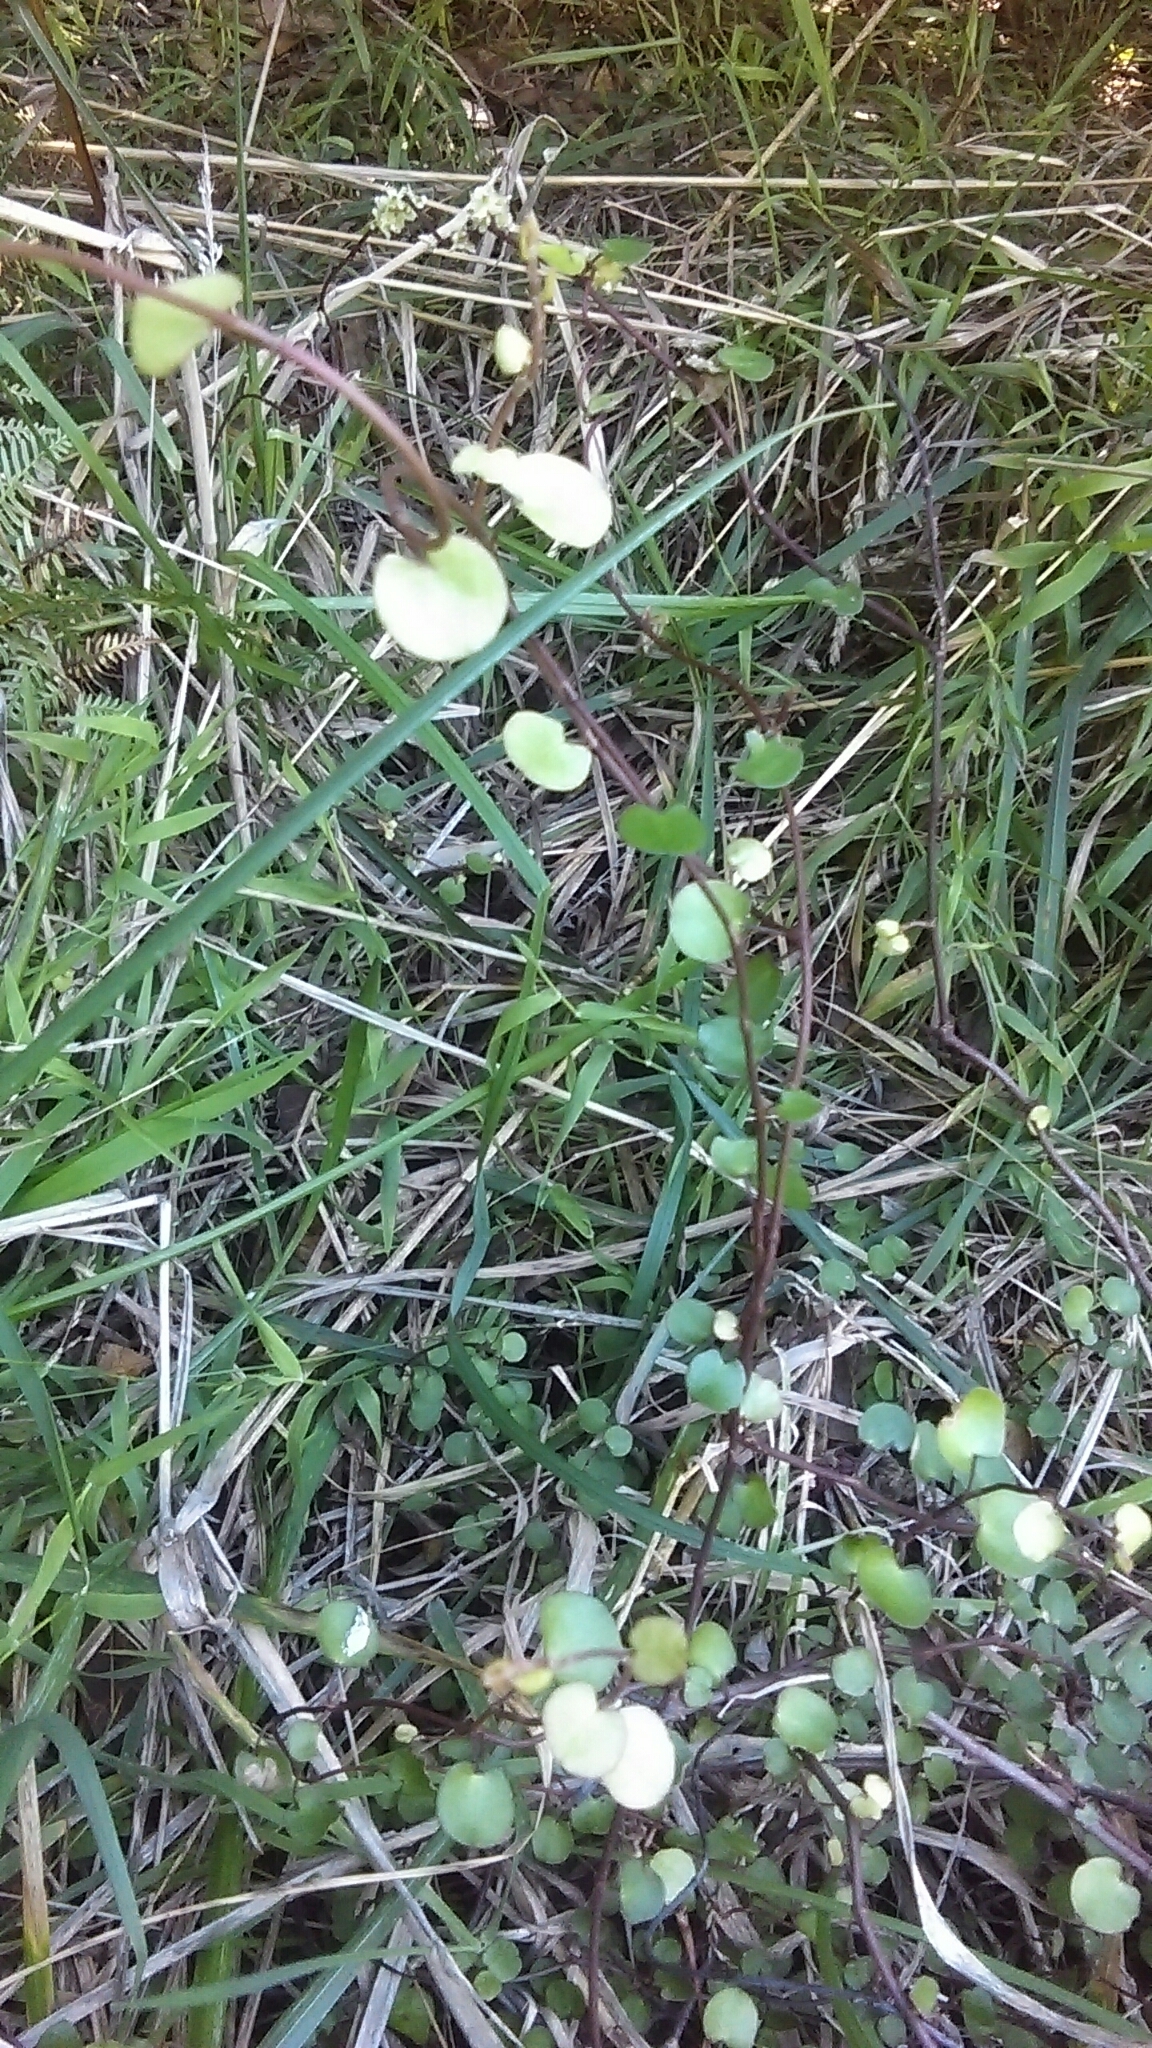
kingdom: Plantae
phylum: Tracheophyta
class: Magnoliopsida
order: Gentianales
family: Rubiaceae
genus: Coprosma
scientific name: Coprosma rhamnoides
